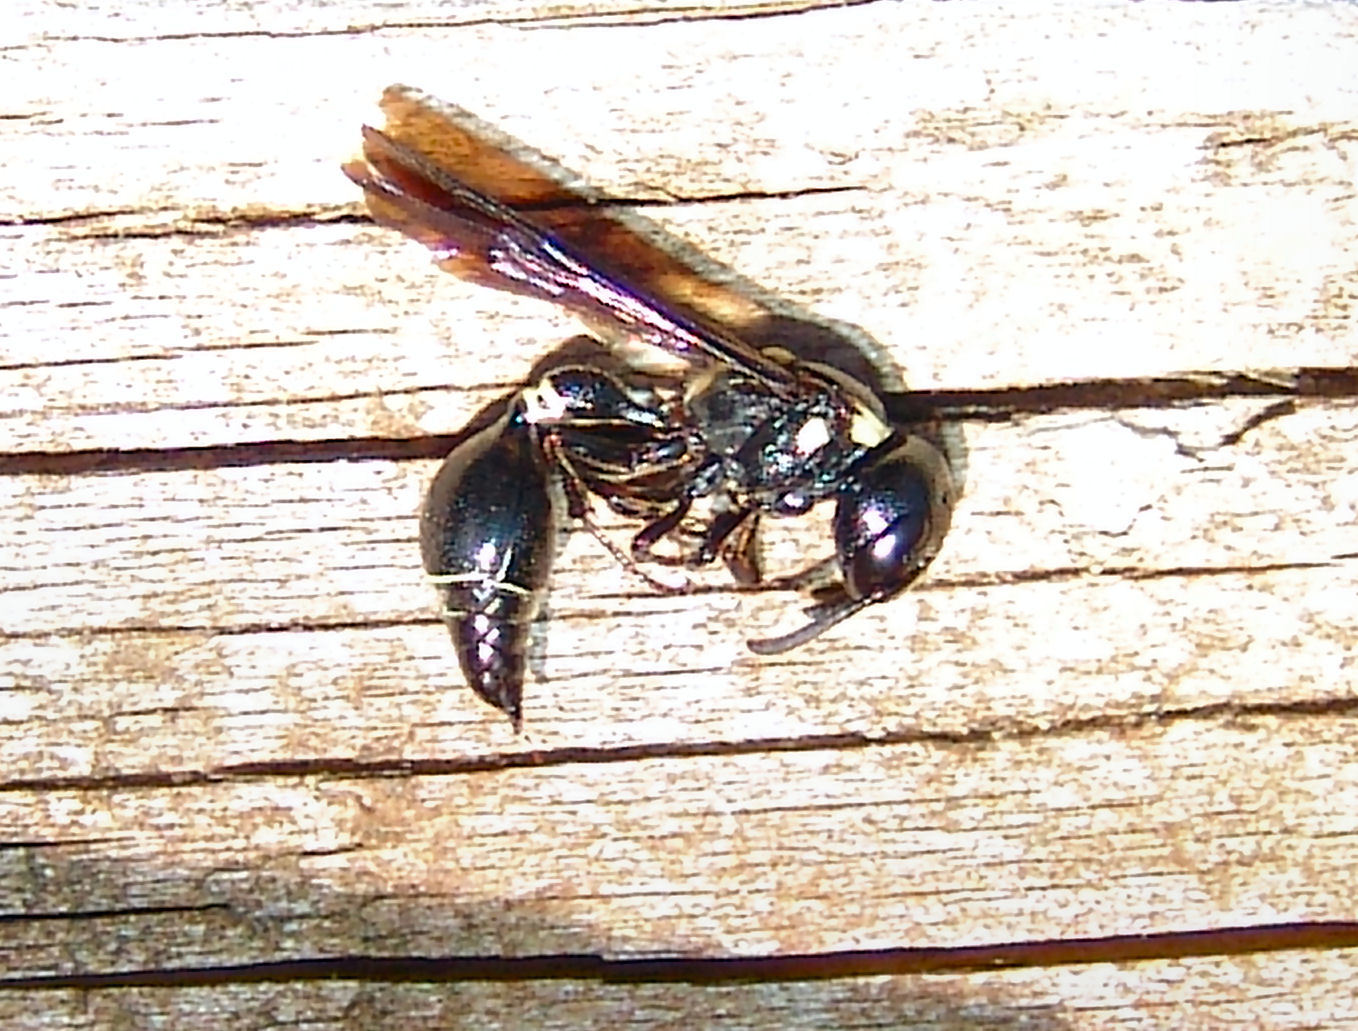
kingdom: Animalia
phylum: Arthropoda
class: Insecta
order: Hymenoptera
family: Eumenidae
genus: Zethus
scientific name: Zethus spinipes
